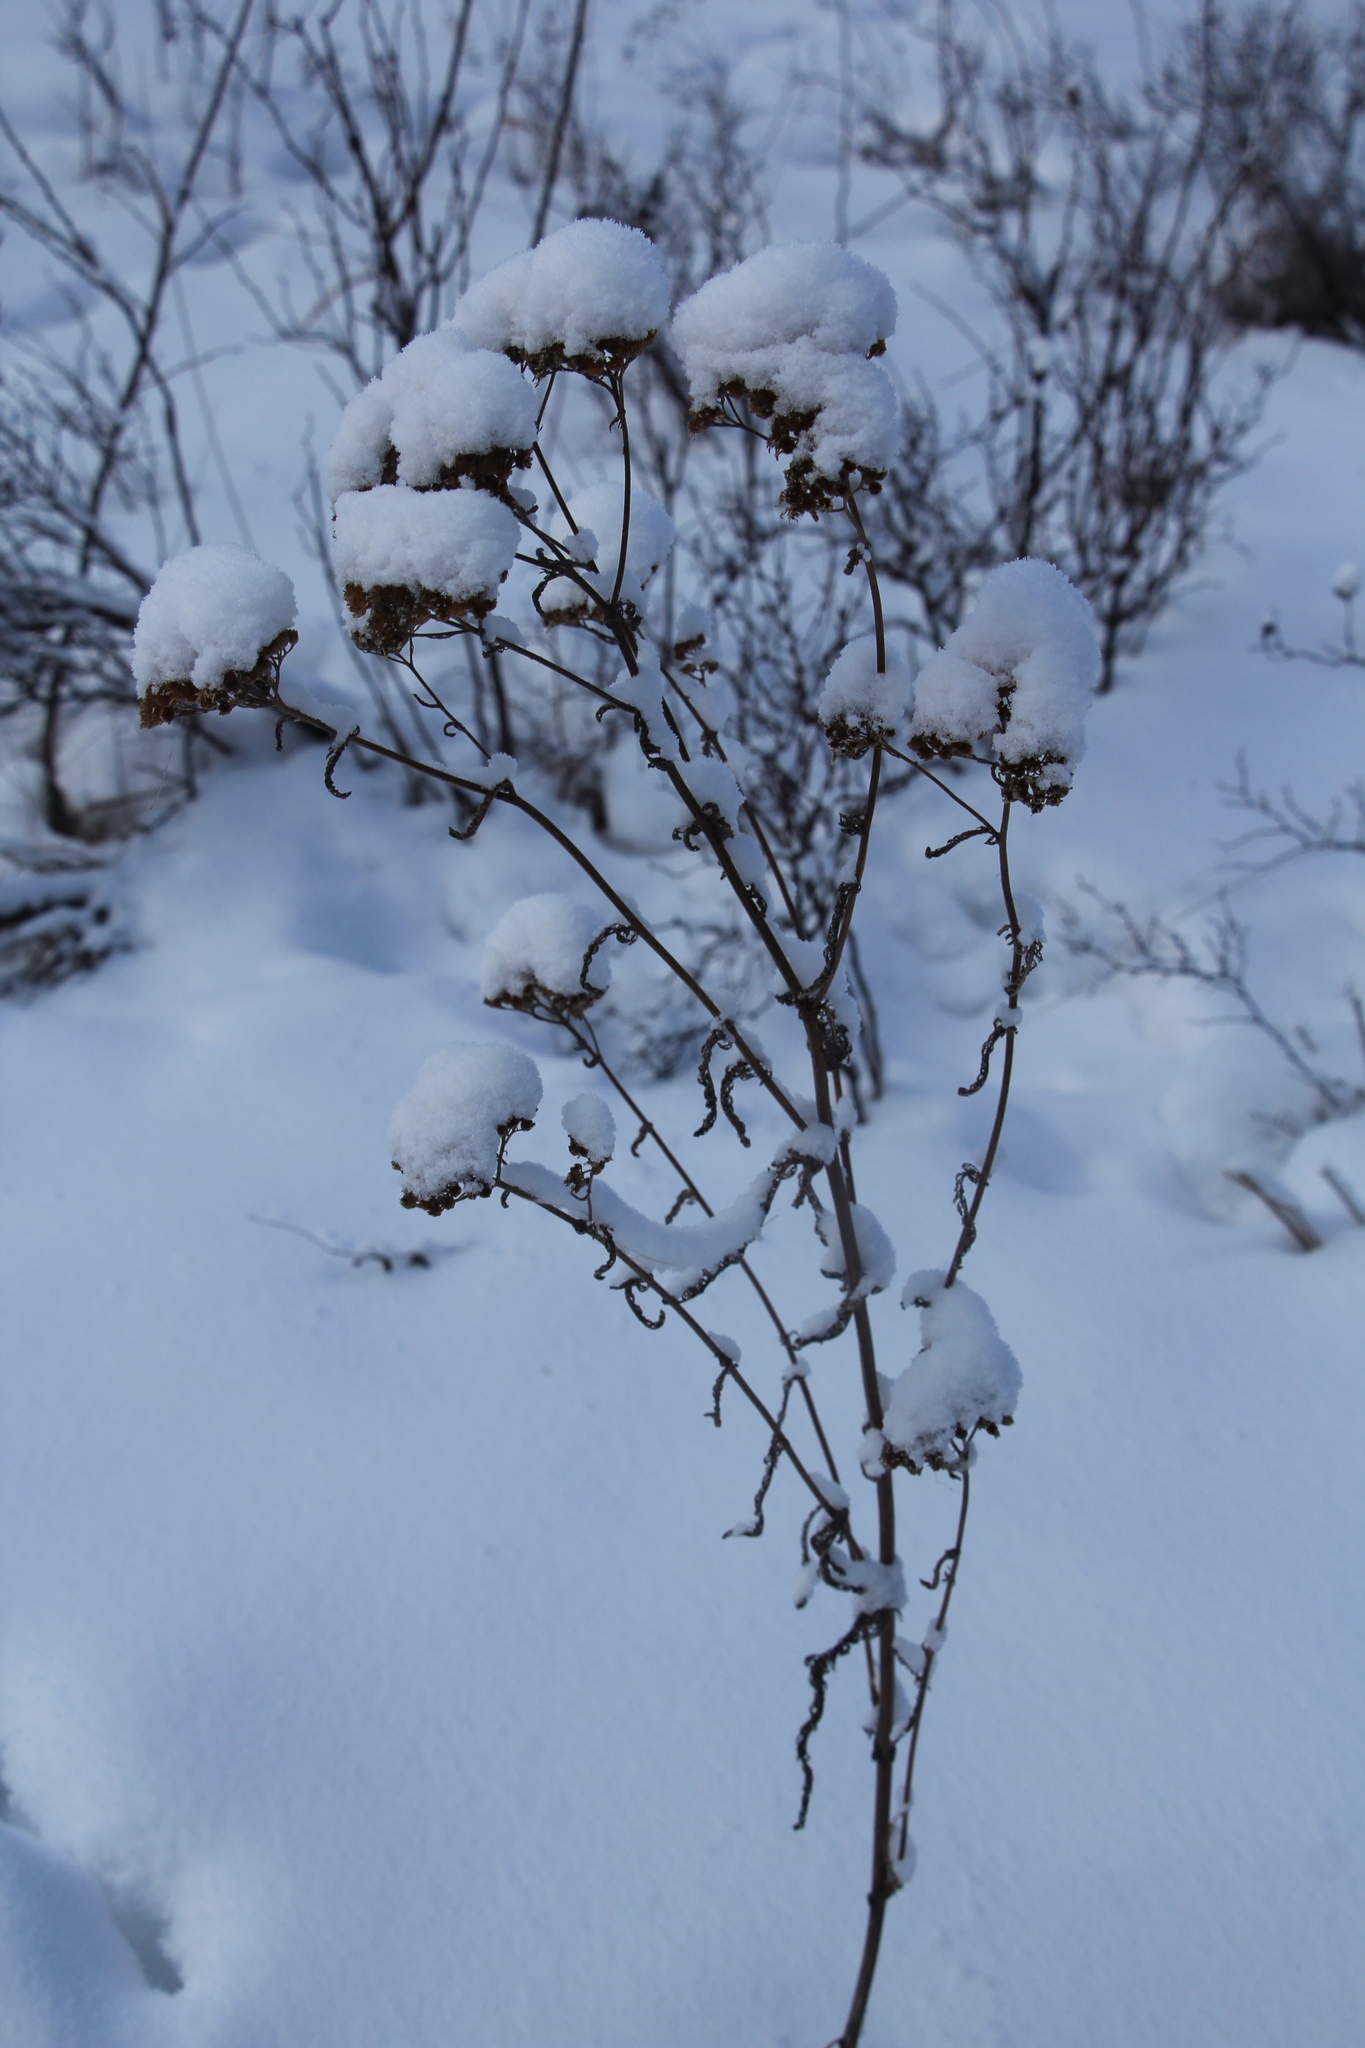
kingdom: Plantae
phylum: Tracheophyta
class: Magnoliopsida
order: Dipsacales
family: Caprifoliaceae
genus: Scabiosa
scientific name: Scabiosa ochroleuca
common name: Cream pincushions
